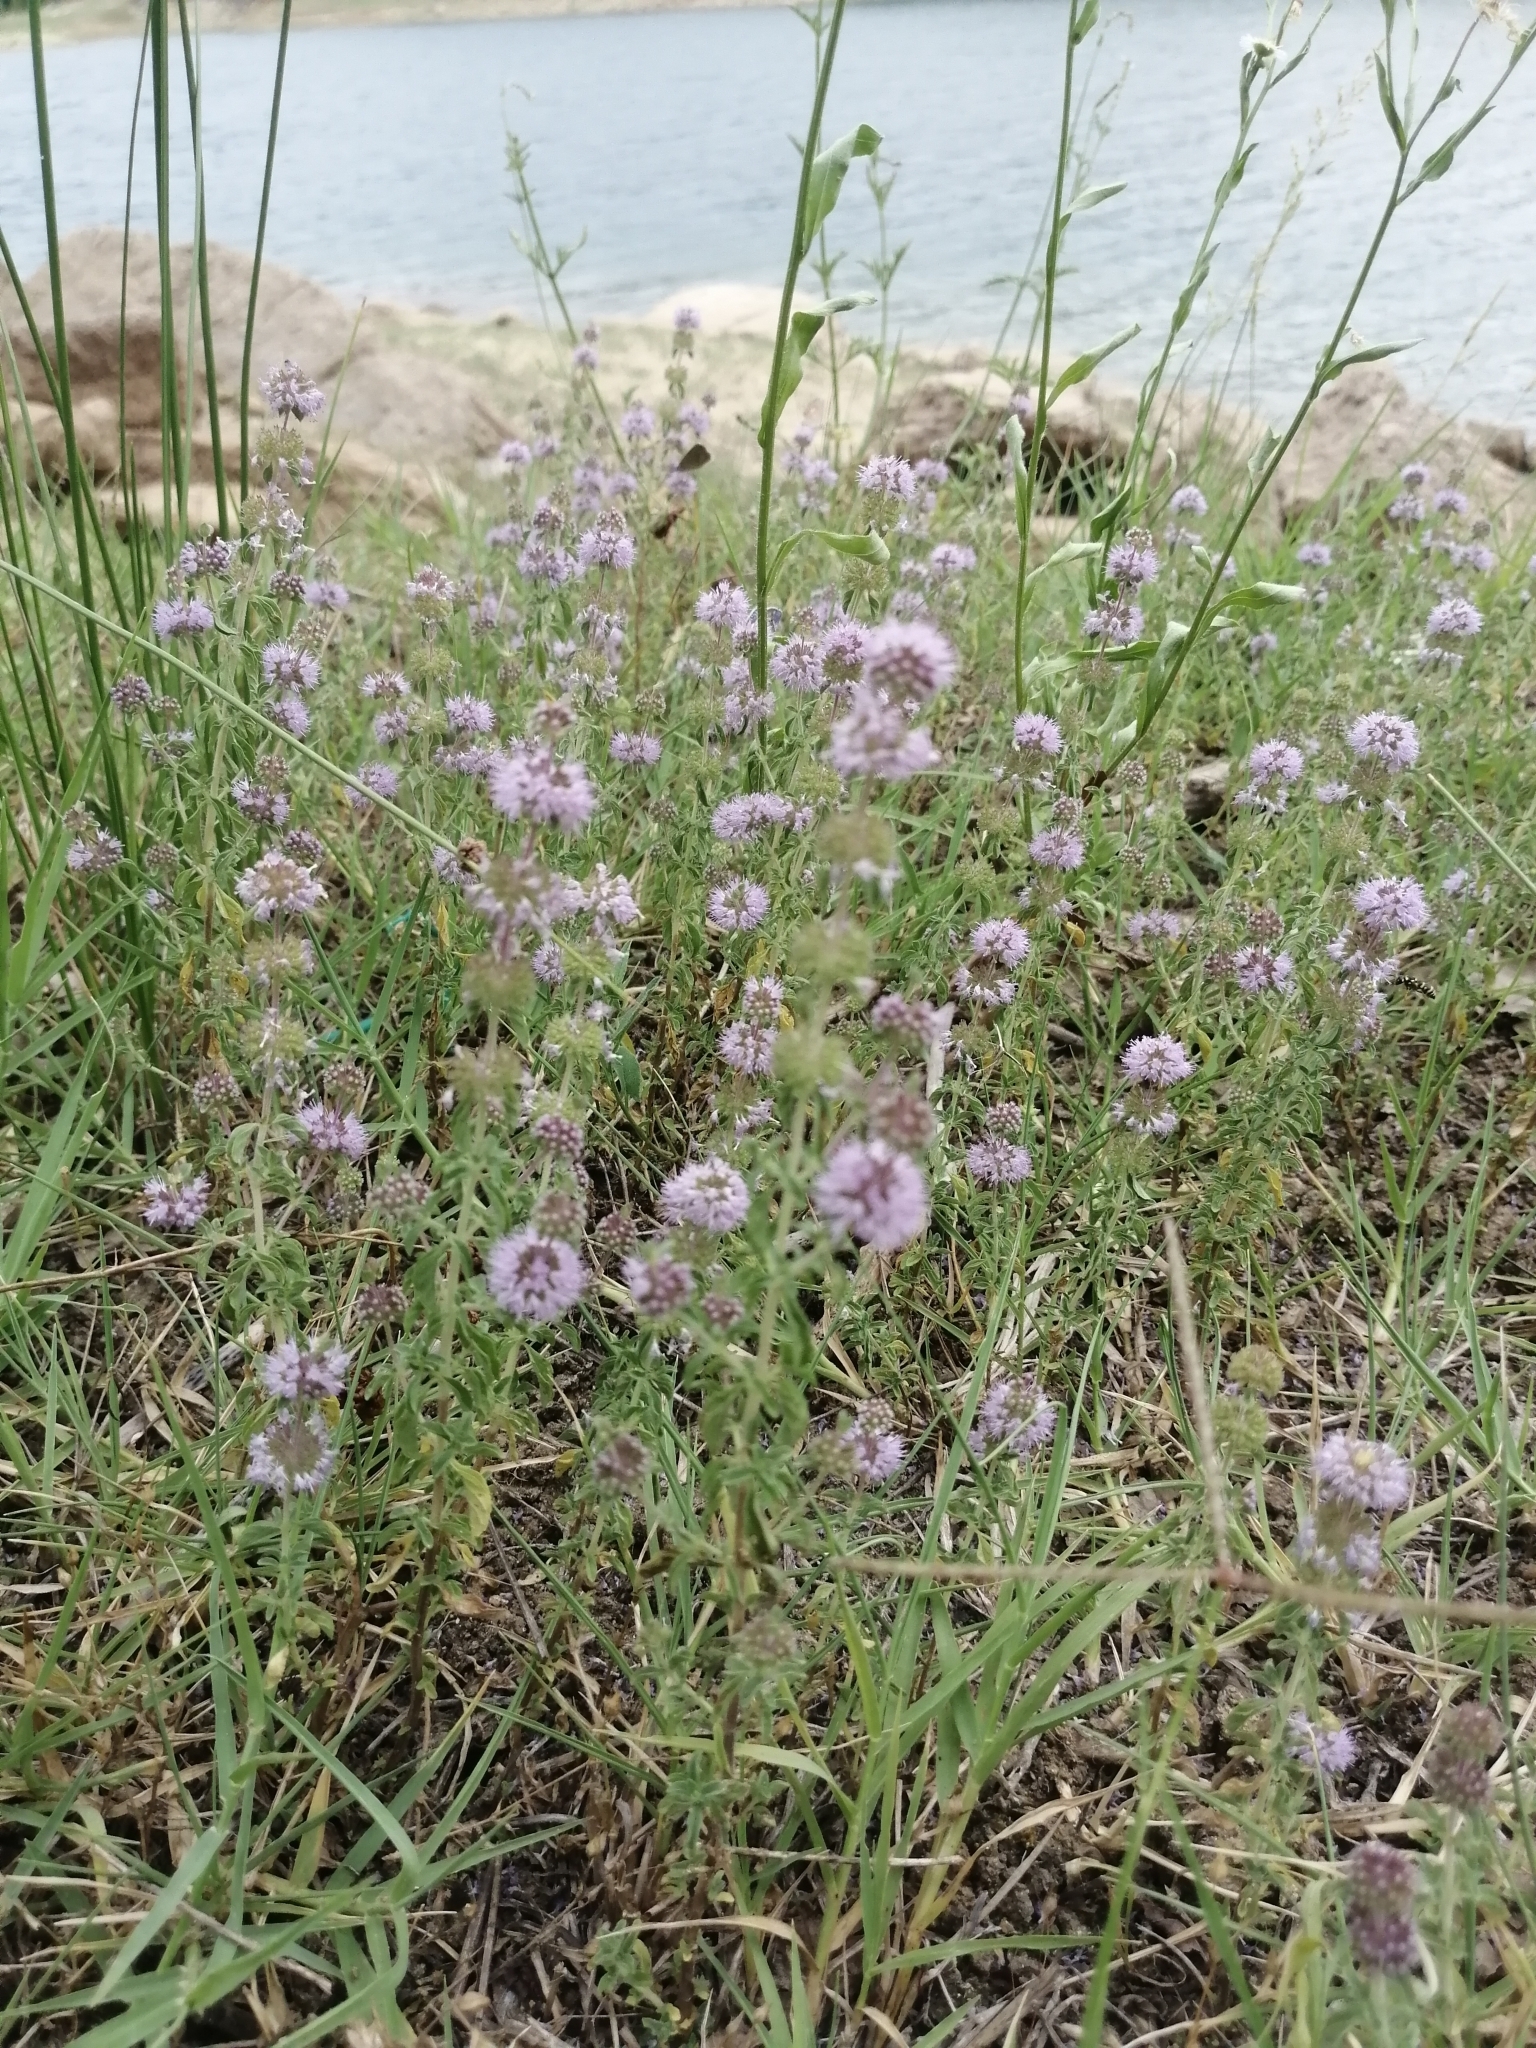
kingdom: Plantae
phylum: Tracheophyta
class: Magnoliopsida
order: Lamiales
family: Lamiaceae
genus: Mentha
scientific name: Mentha pulegium
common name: Pennyroyal
